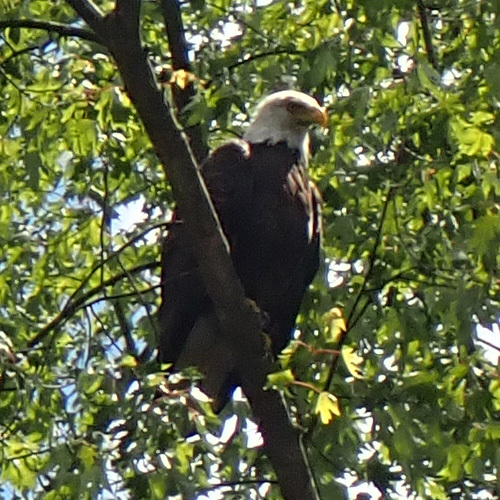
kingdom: Animalia
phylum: Chordata
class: Aves
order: Accipitriformes
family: Accipitridae
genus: Haliaeetus
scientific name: Haliaeetus leucocephalus
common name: Bald eagle
